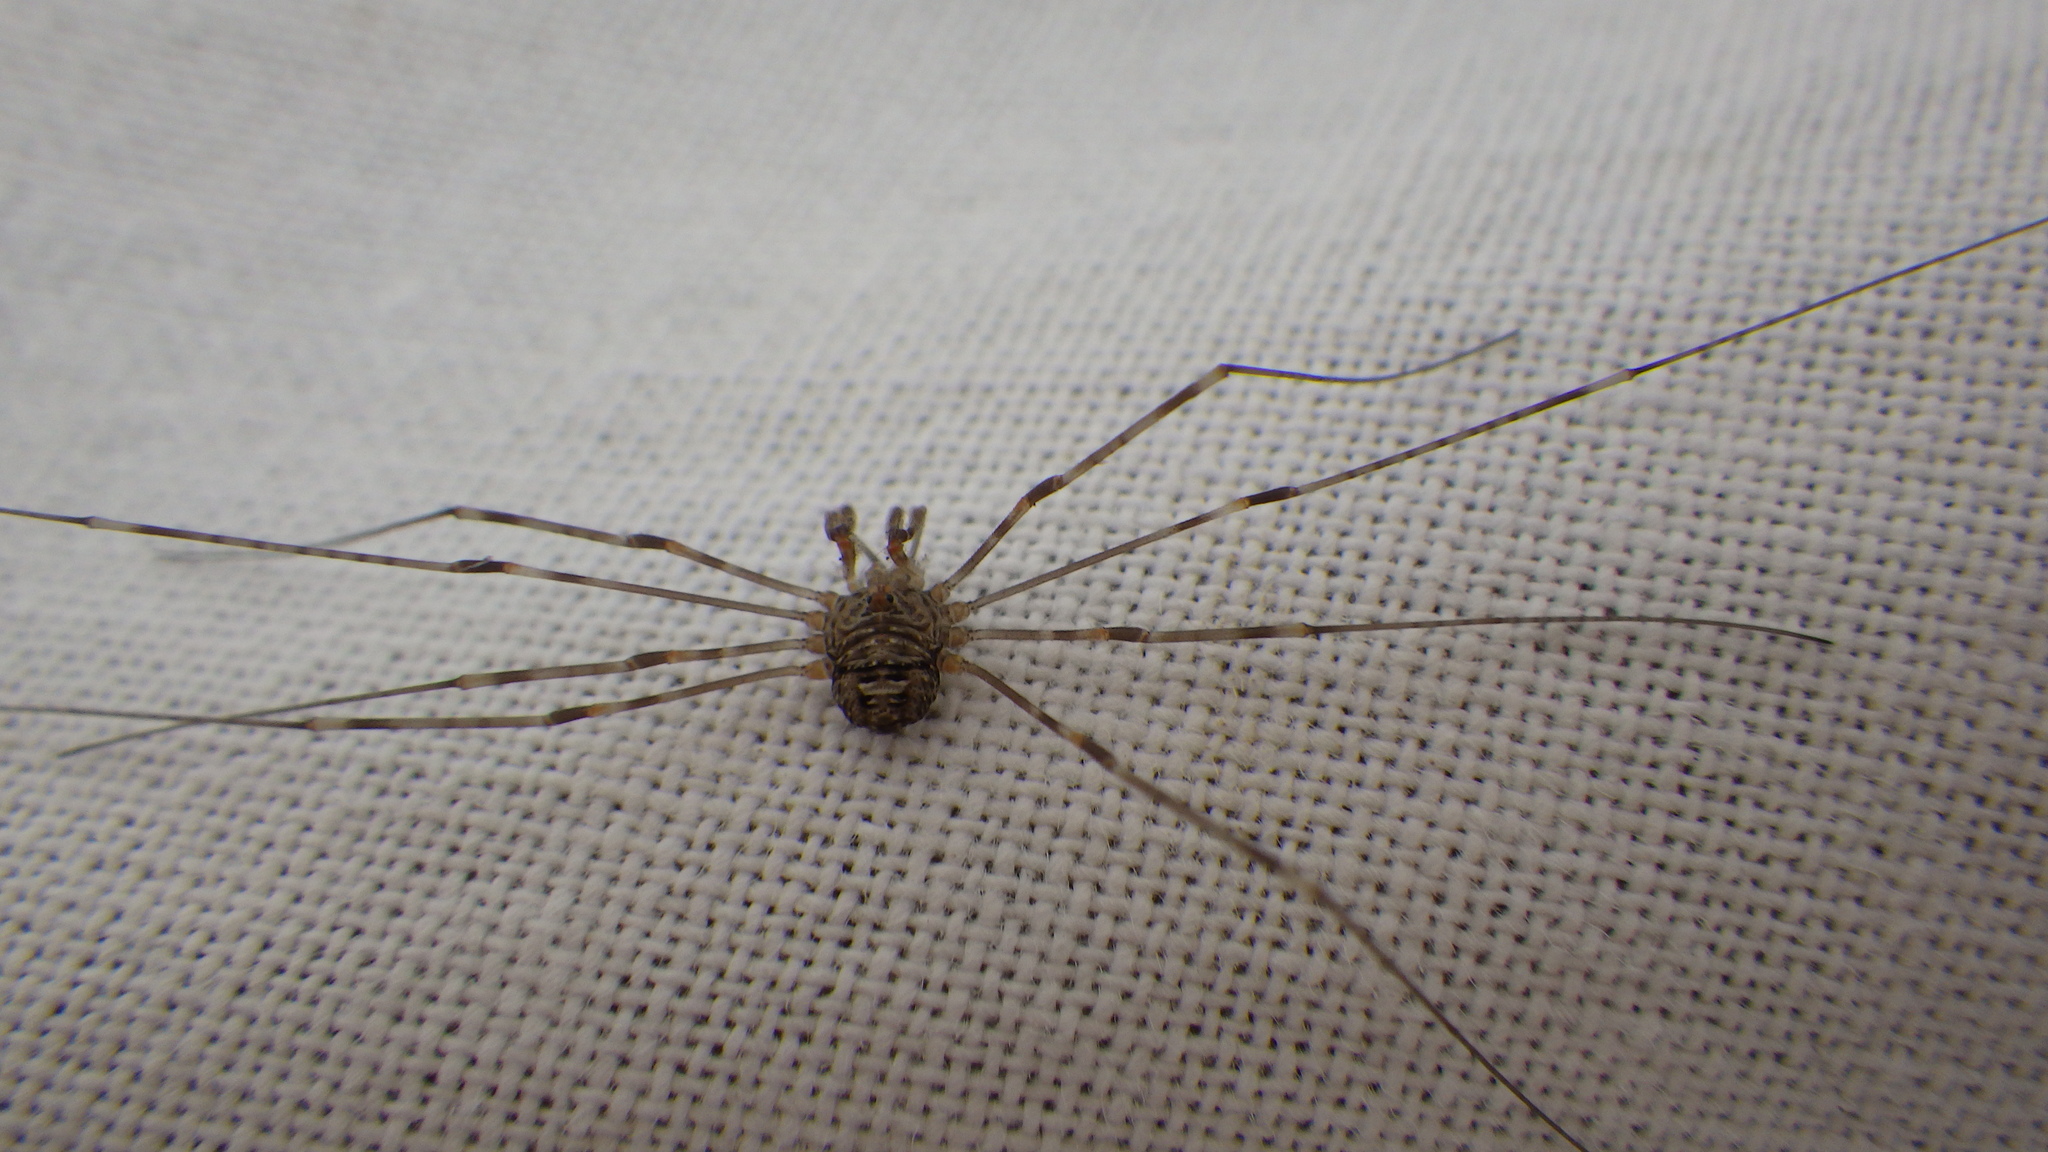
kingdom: Animalia
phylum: Arthropoda
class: Arachnida
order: Opiliones
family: Phalangiidae
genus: Dicranopalpus
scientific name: Dicranopalpus ramosus
